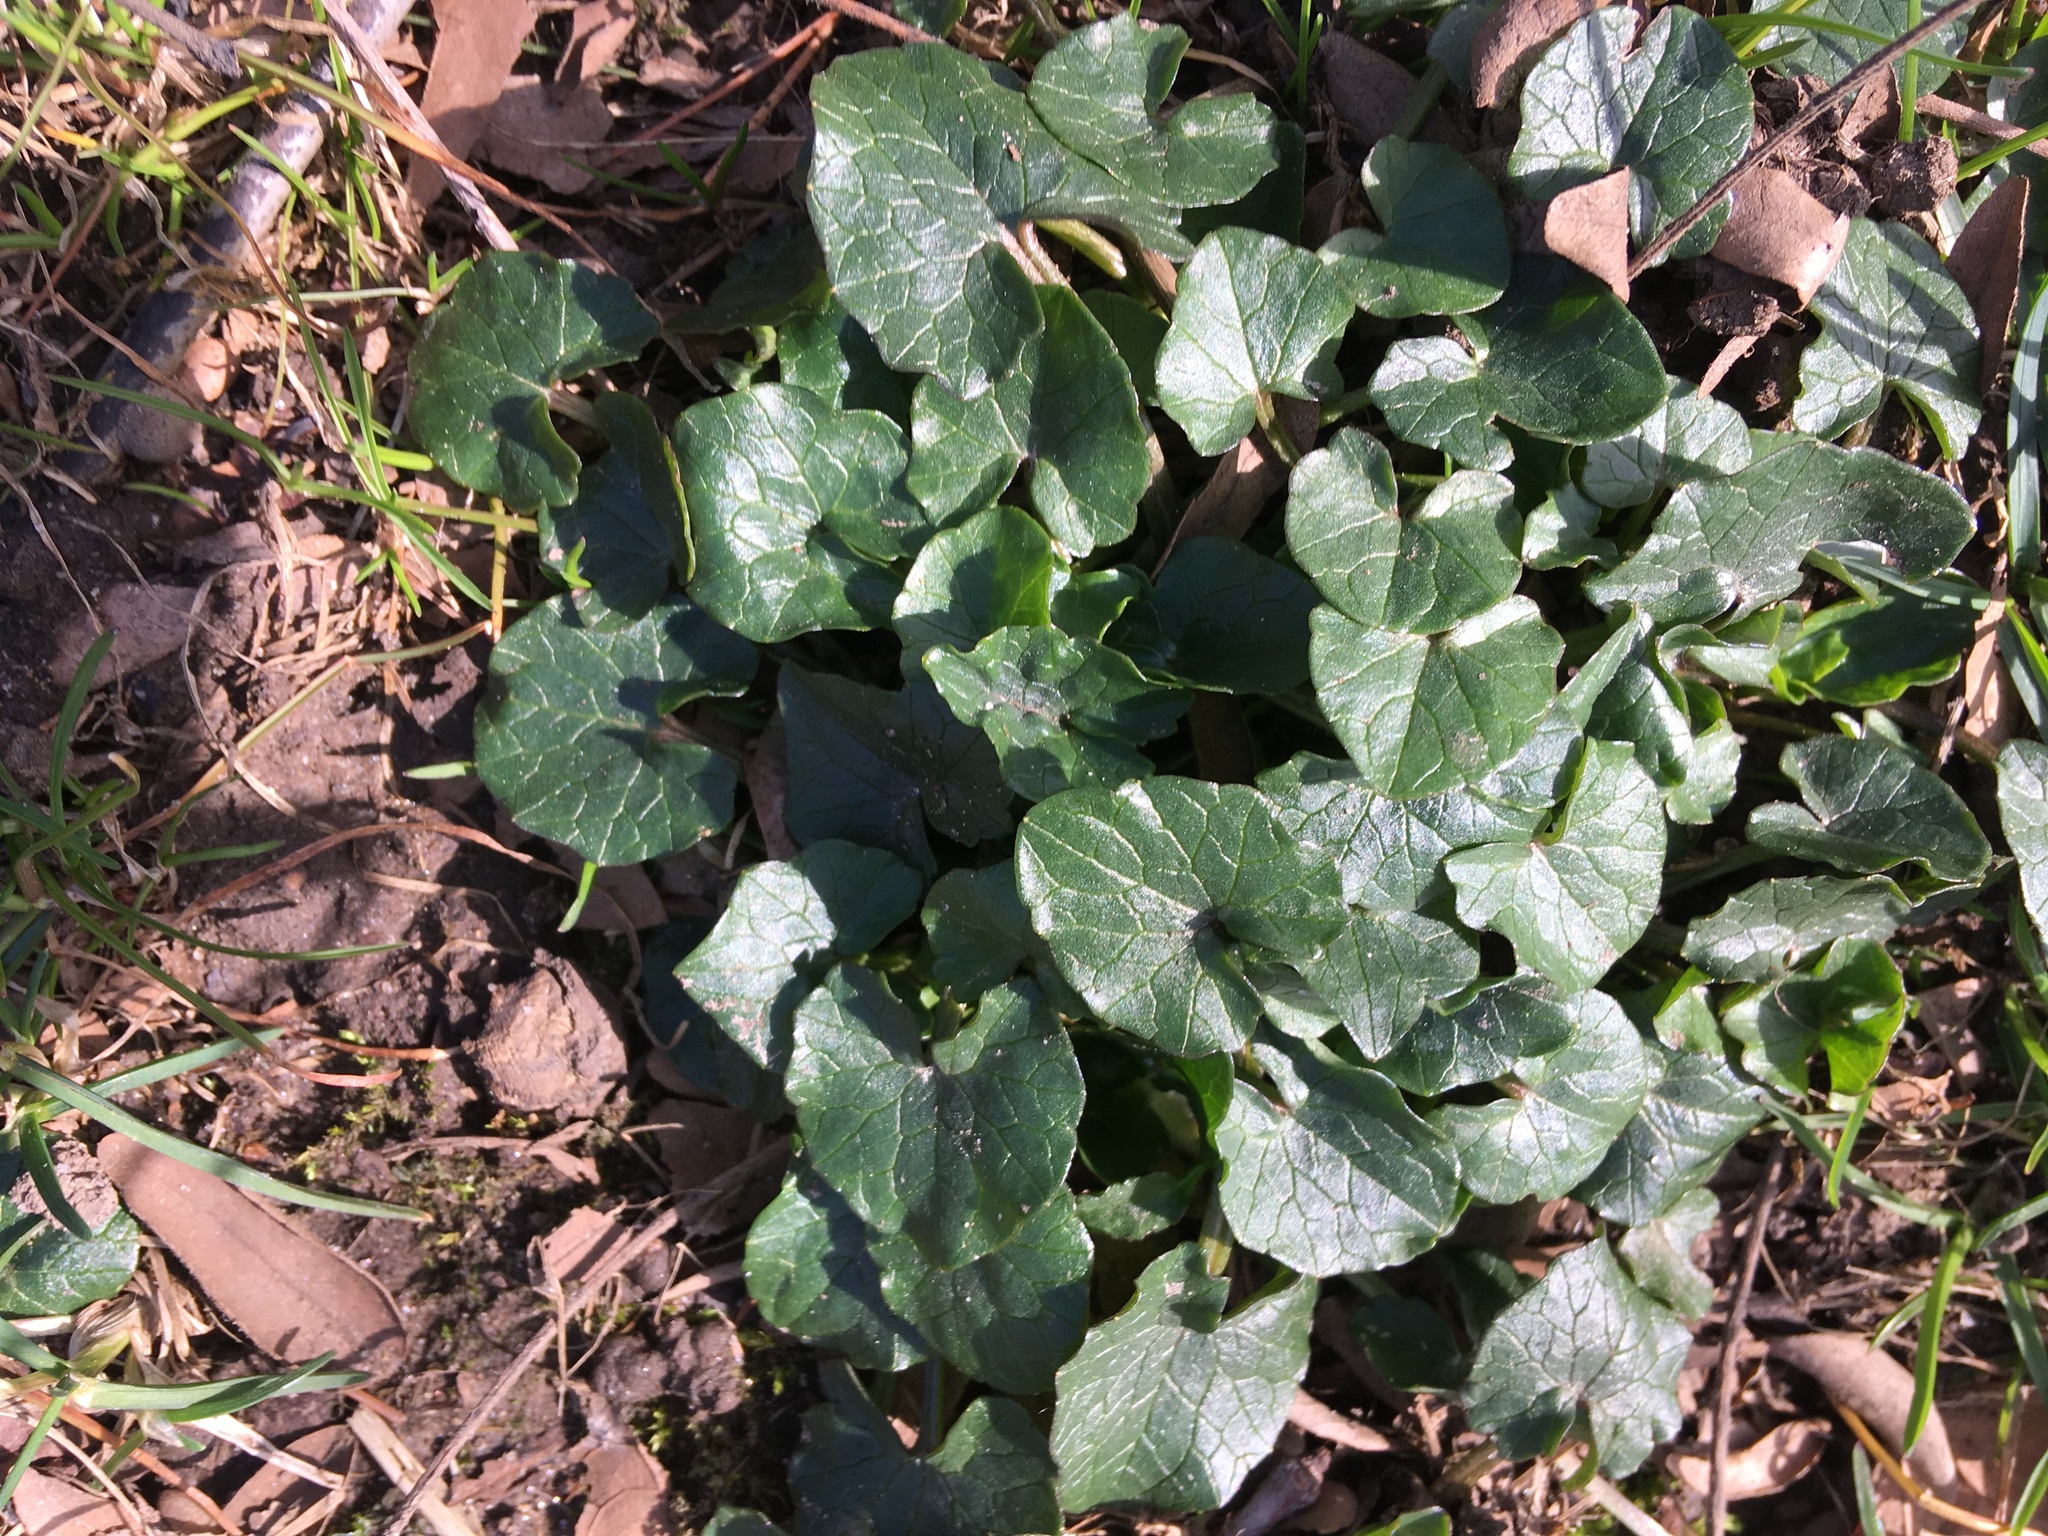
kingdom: Plantae
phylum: Tracheophyta
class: Magnoliopsida
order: Ranunculales
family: Ranunculaceae
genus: Ficaria
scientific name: Ficaria verna
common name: Lesser celandine
